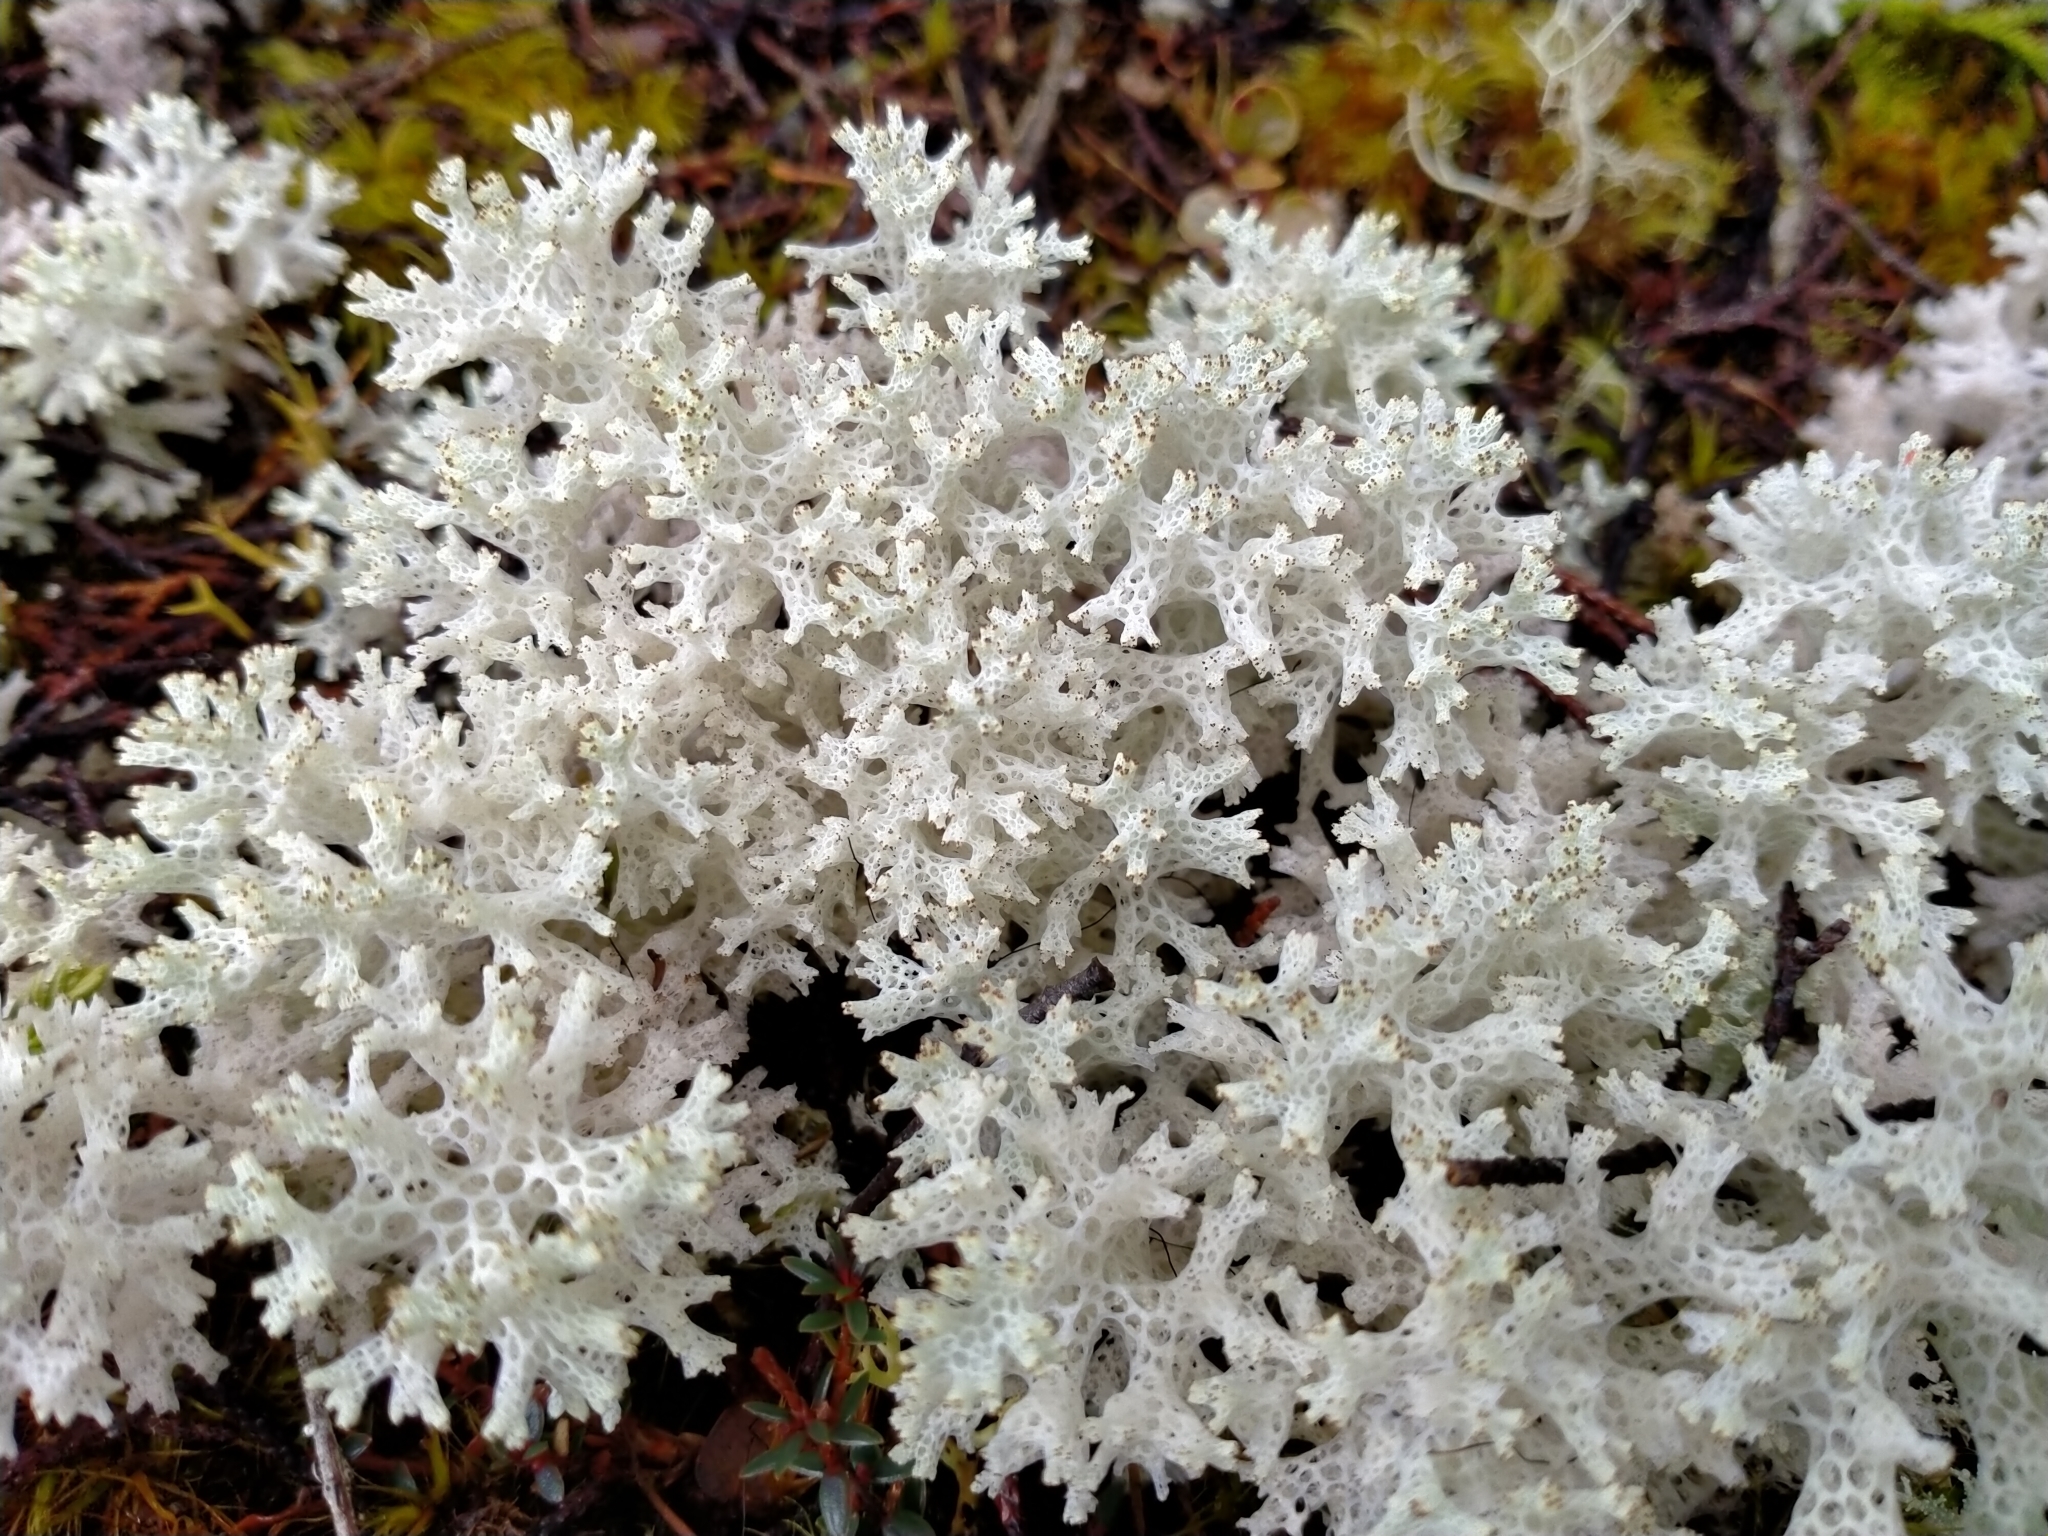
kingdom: Fungi
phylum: Ascomycota
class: Lecanoromycetes
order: Lecanorales
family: Cladoniaceae
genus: Pulchrocladia
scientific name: Pulchrocladia retipora
